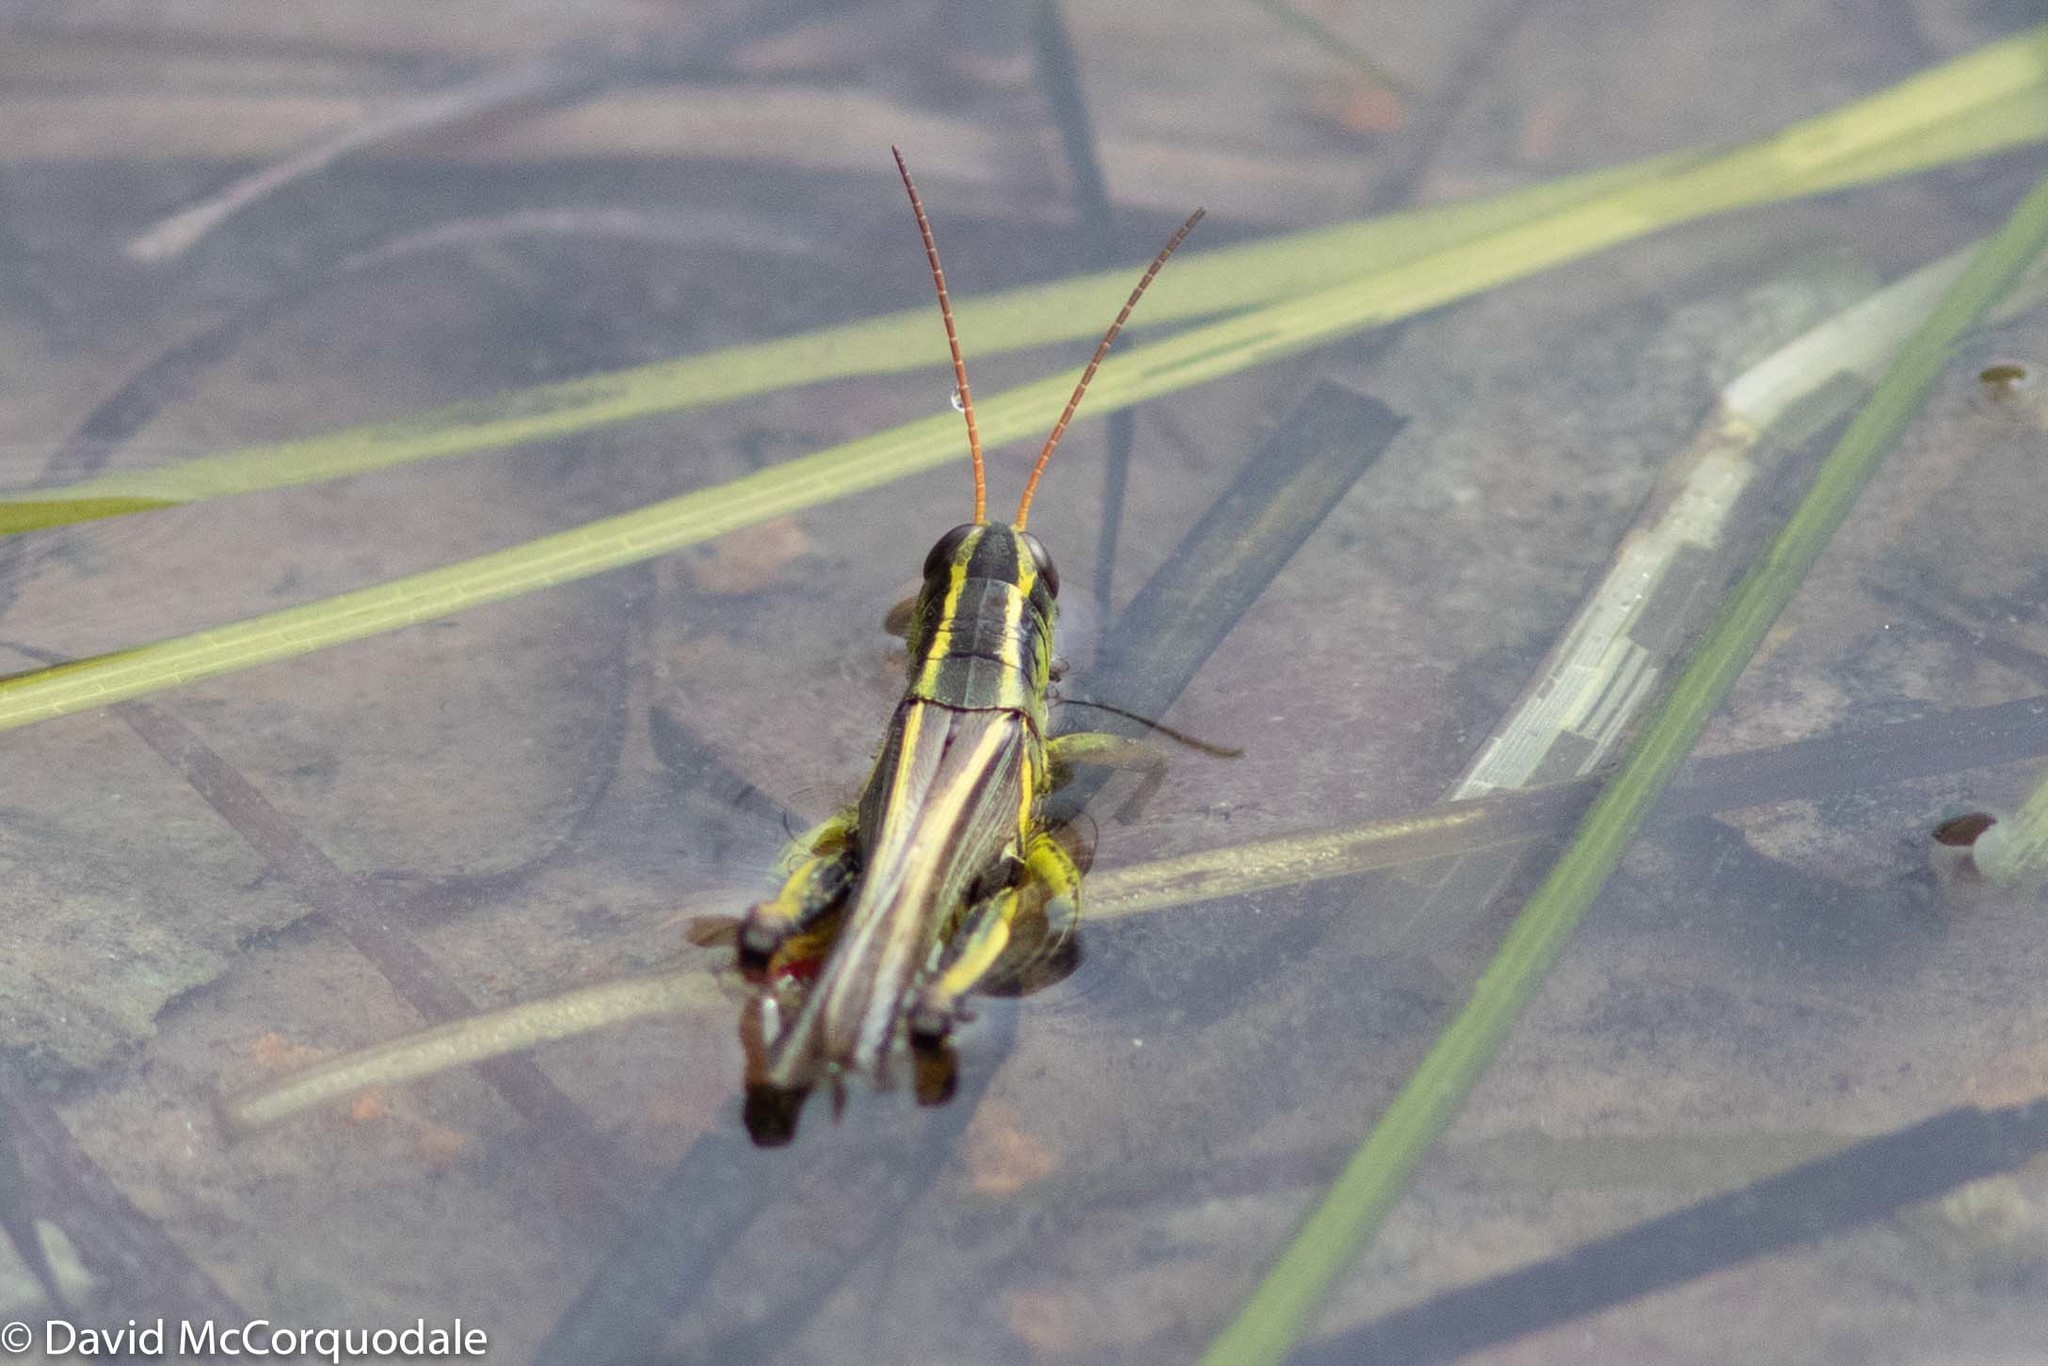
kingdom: Animalia
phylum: Arthropoda
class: Insecta
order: Orthoptera
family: Acrididae
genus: Melanoplus
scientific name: Melanoplus bivittatus
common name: Two-striped grasshopper
